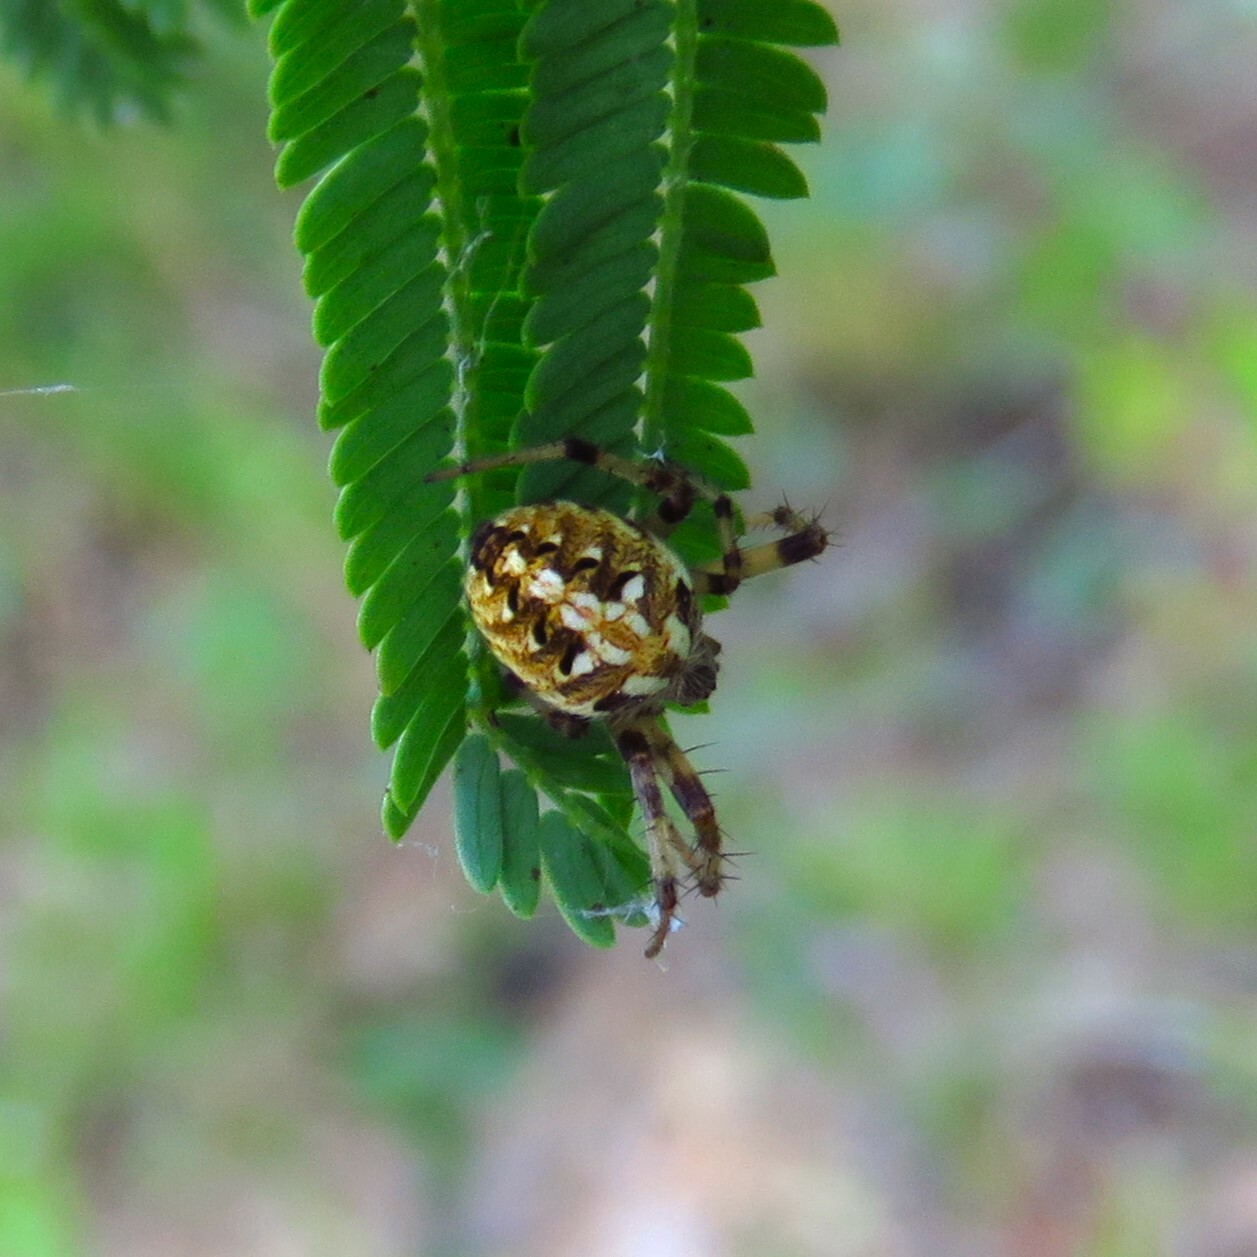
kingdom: Animalia
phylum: Arthropoda
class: Arachnida
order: Araneae
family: Araneidae
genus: Neoscona
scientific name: Neoscona arabesca
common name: Orb weavers
